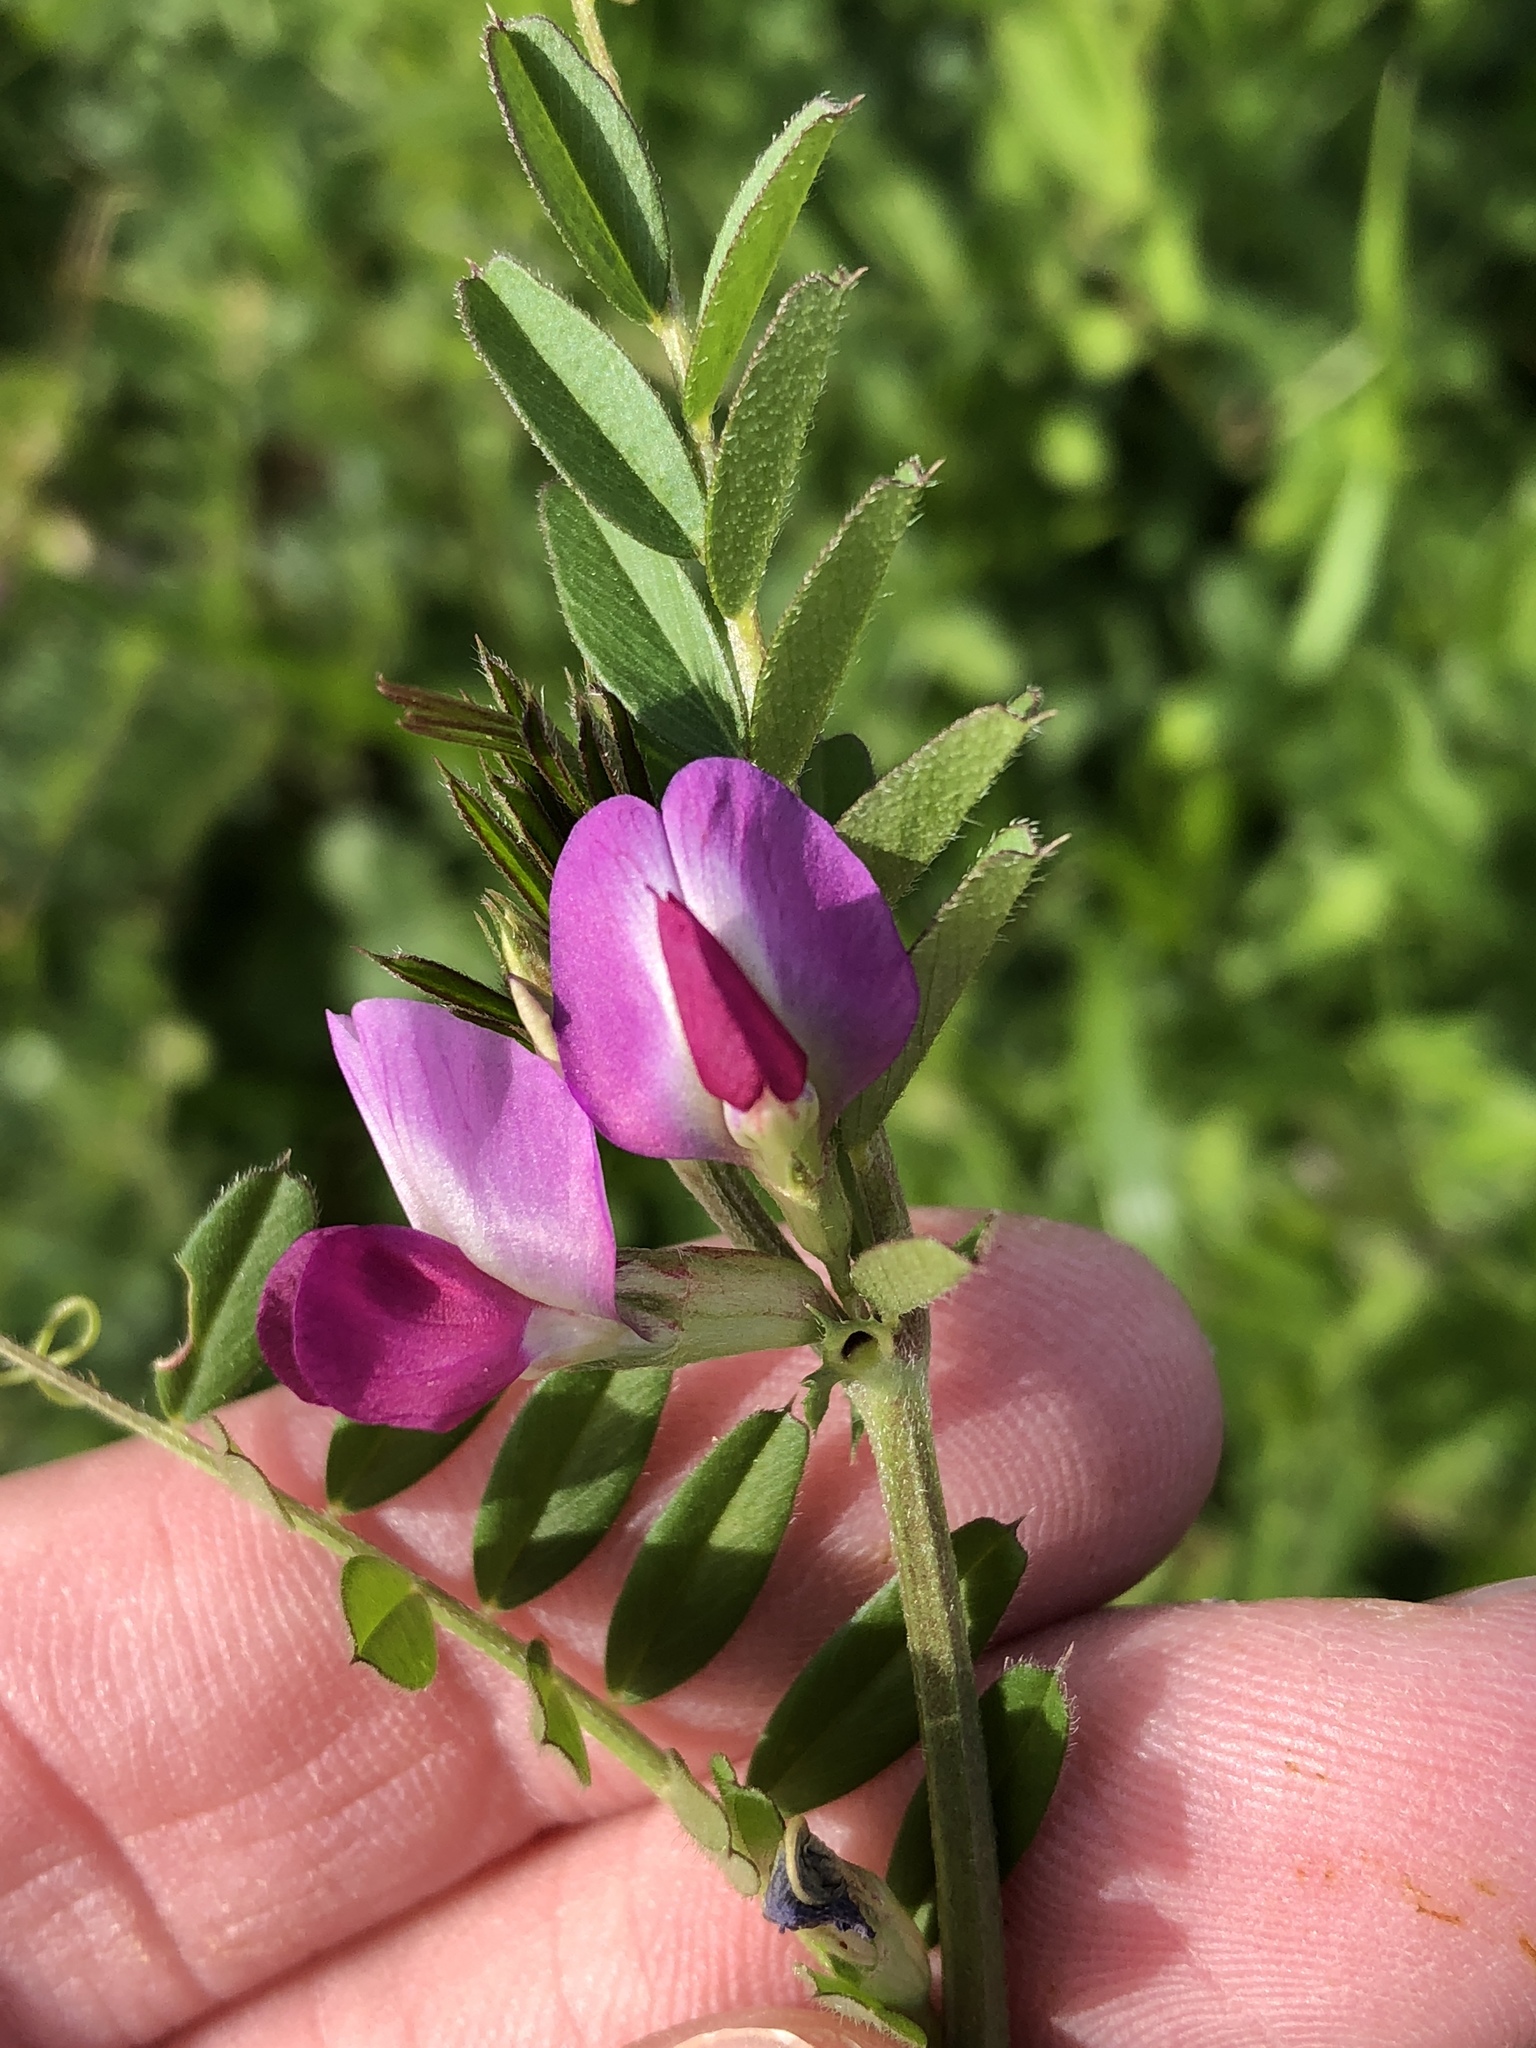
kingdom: Plantae
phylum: Tracheophyta
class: Magnoliopsida
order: Fabales
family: Fabaceae
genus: Vicia
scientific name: Vicia sativa
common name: Garden vetch
